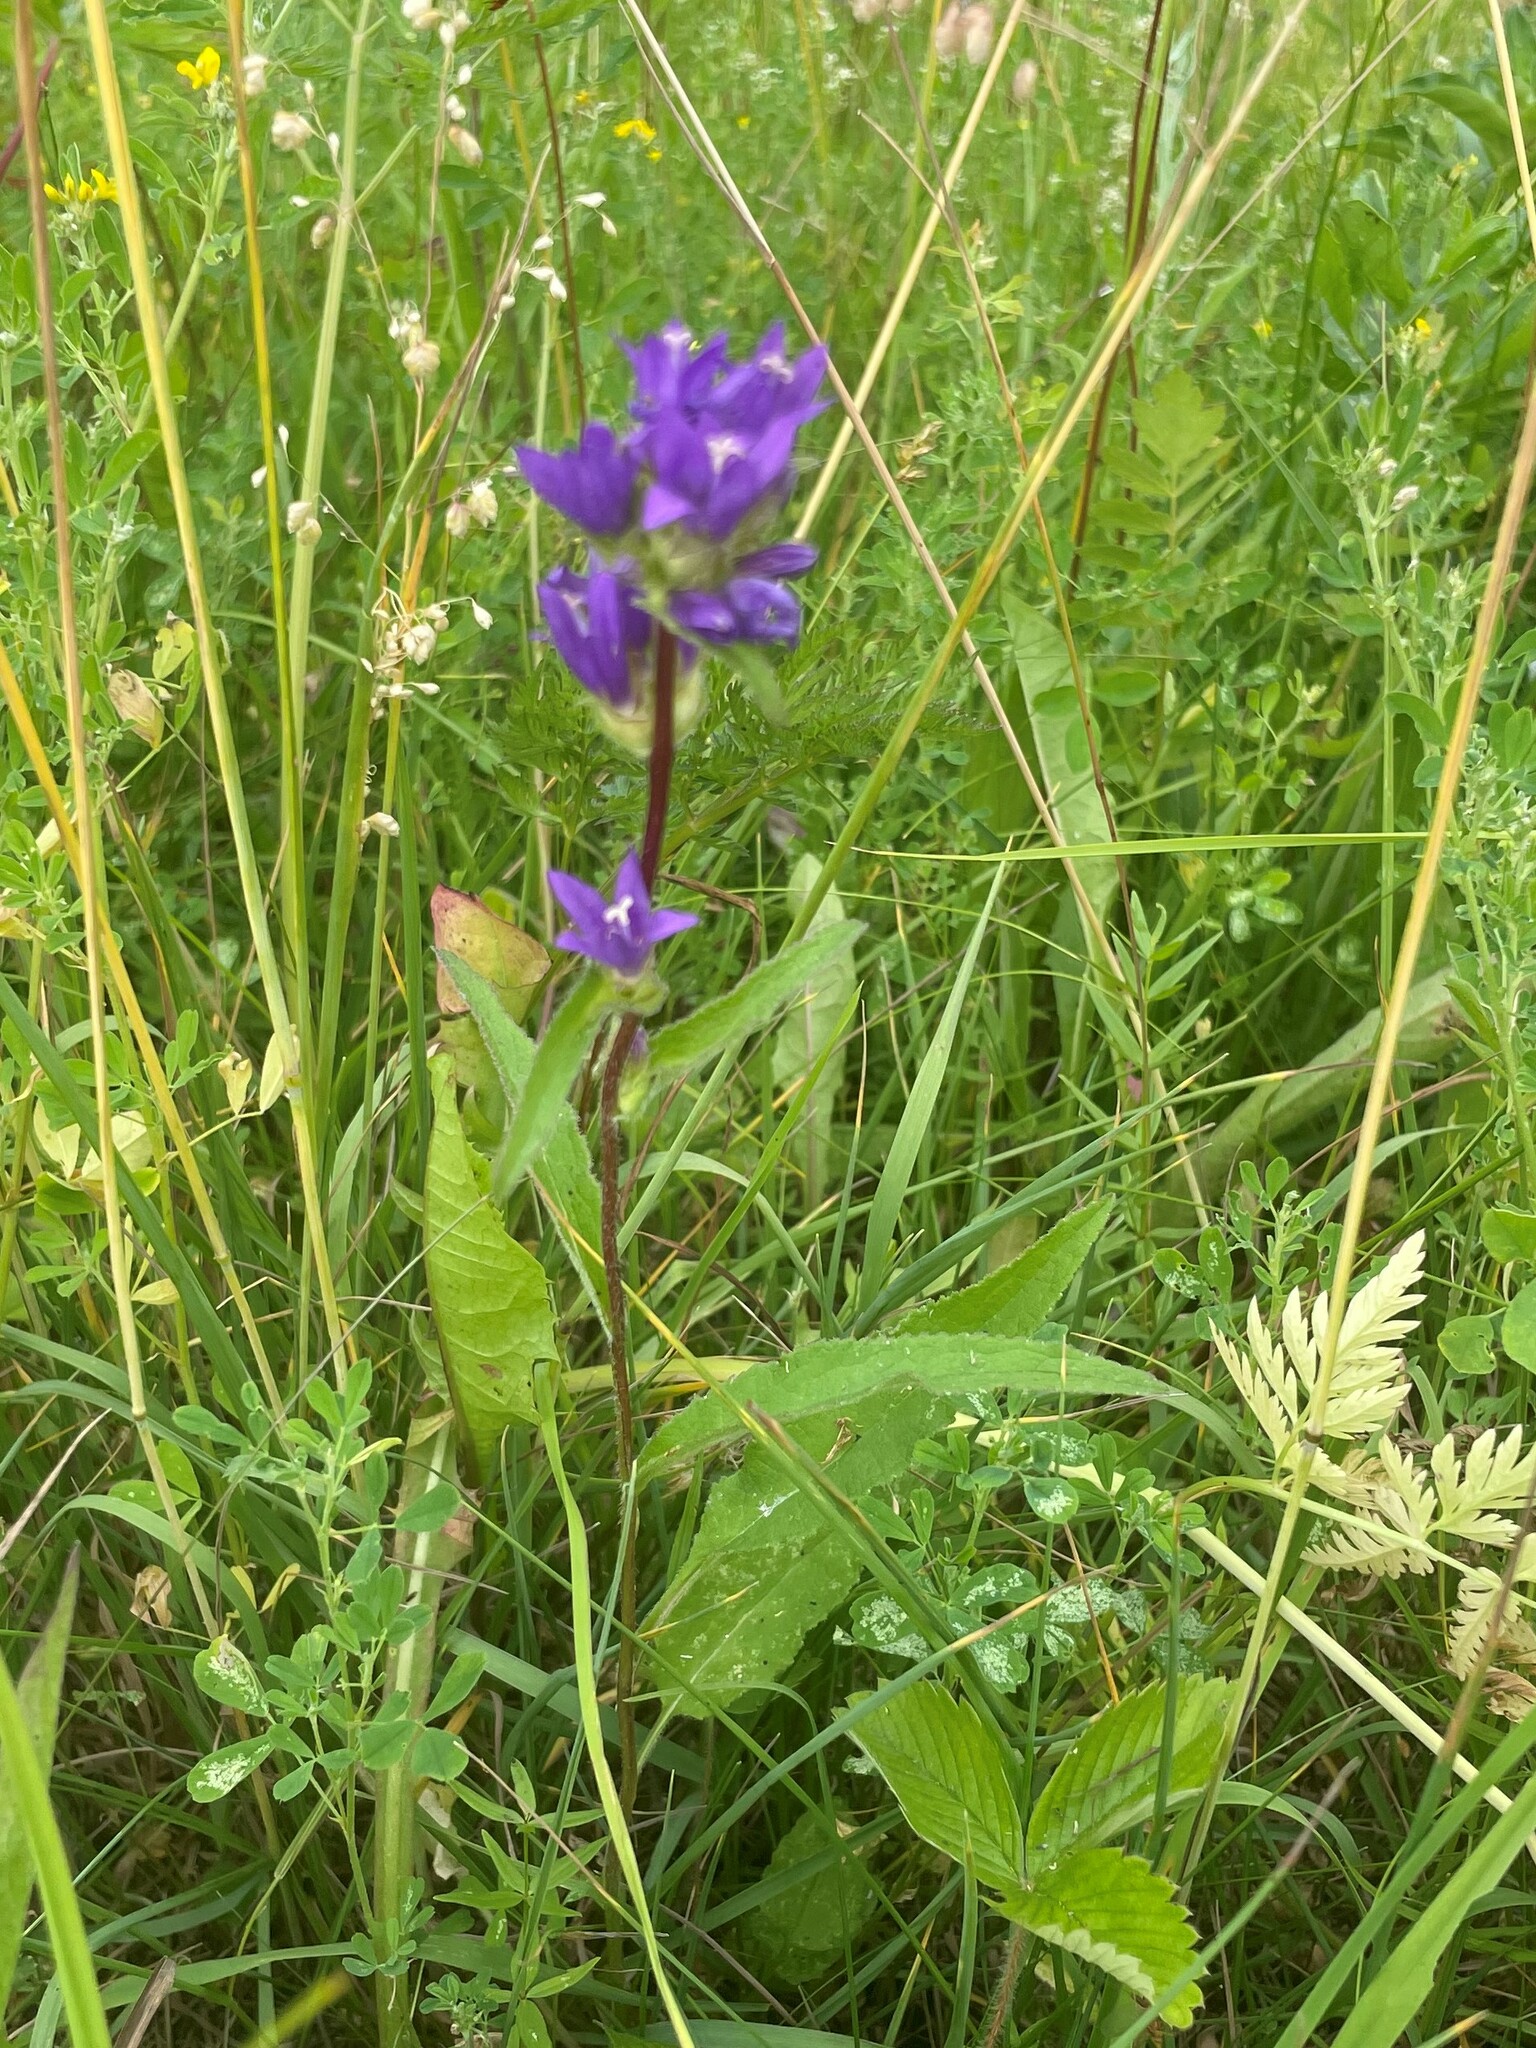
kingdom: Plantae
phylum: Tracheophyta
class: Magnoliopsida
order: Asterales
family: Campanulaceae
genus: Campanula
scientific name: Campanula glomerata
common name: Clustered bellflower
